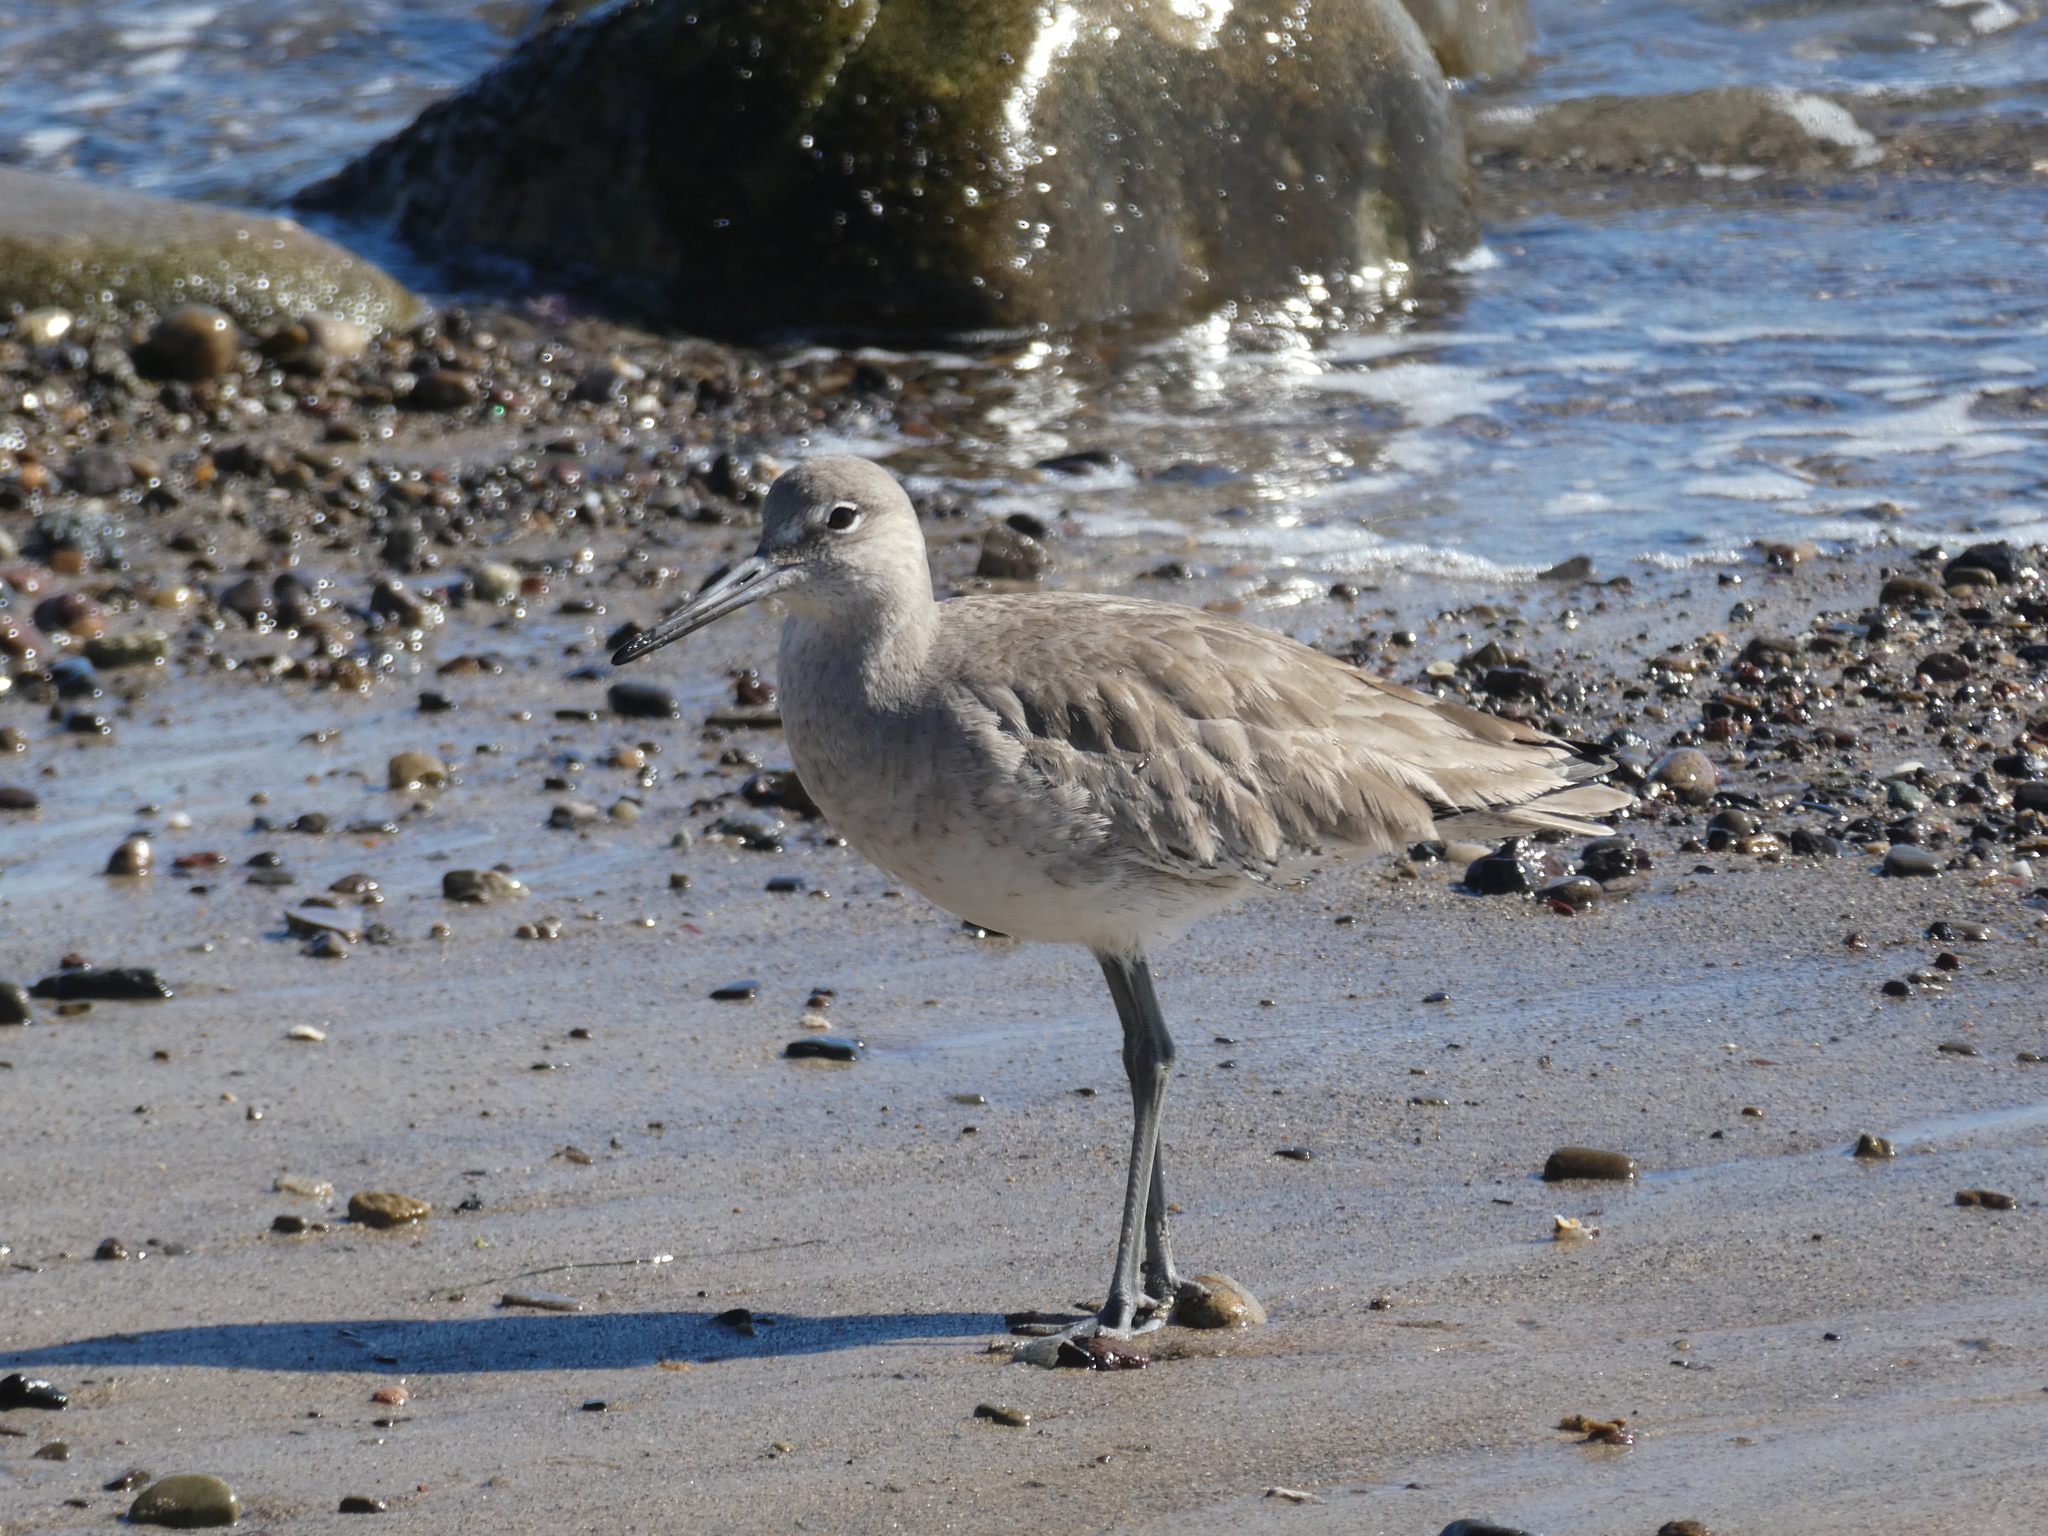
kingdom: Animalia
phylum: Chordata
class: Aves
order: Charadriiformes
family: Scolopacidae
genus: Tringa
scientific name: Tringa semipalmata
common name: Willet
